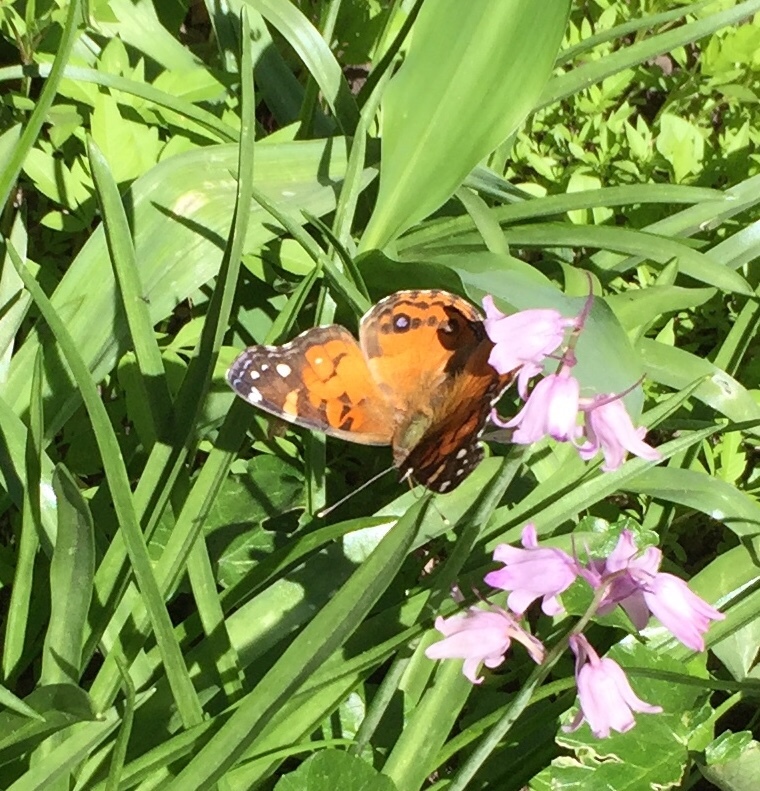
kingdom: Animalia
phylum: Arthropoda
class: Insecta
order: Lepidoptera
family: Nymphalidae
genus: Vanessa
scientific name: Vanessa virginiensis
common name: American lady
